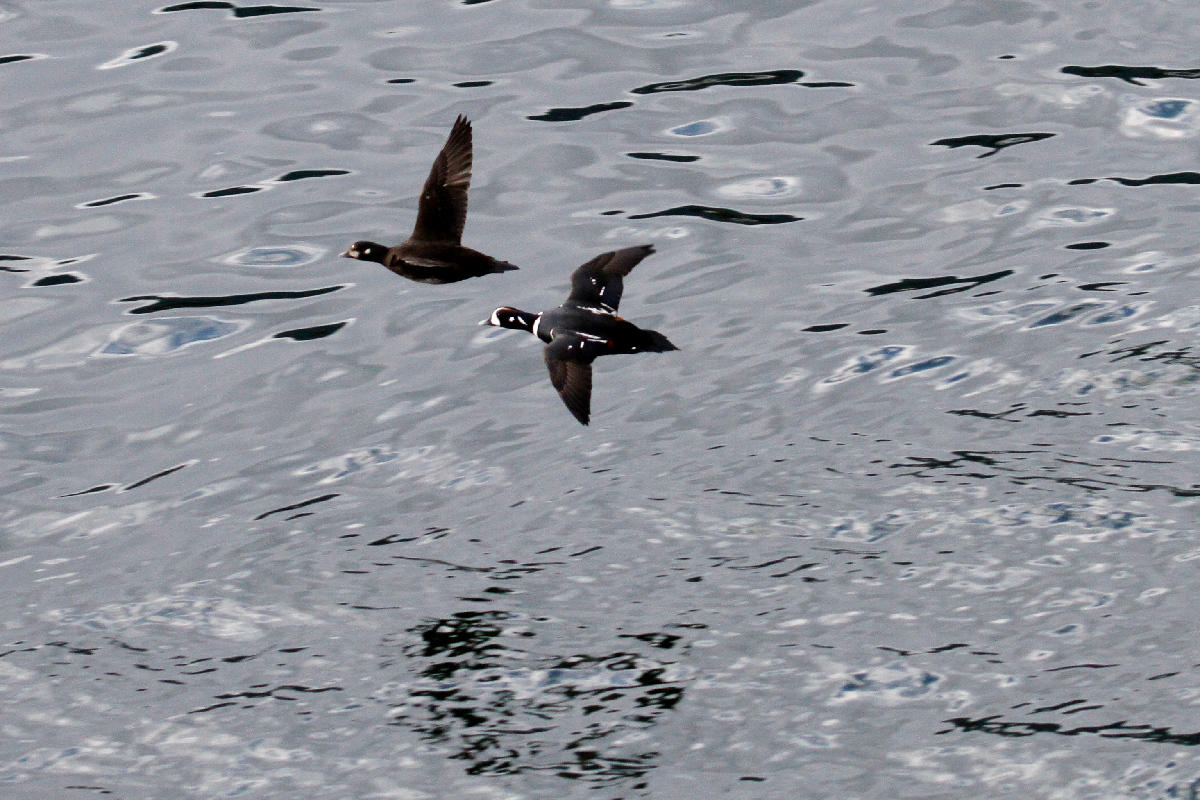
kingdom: Animalia
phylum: Chordata
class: Aves
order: Anseriformes
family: Anatidae
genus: Histrionicus
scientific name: Histrionicus histrionicus
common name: Harlequin duck
